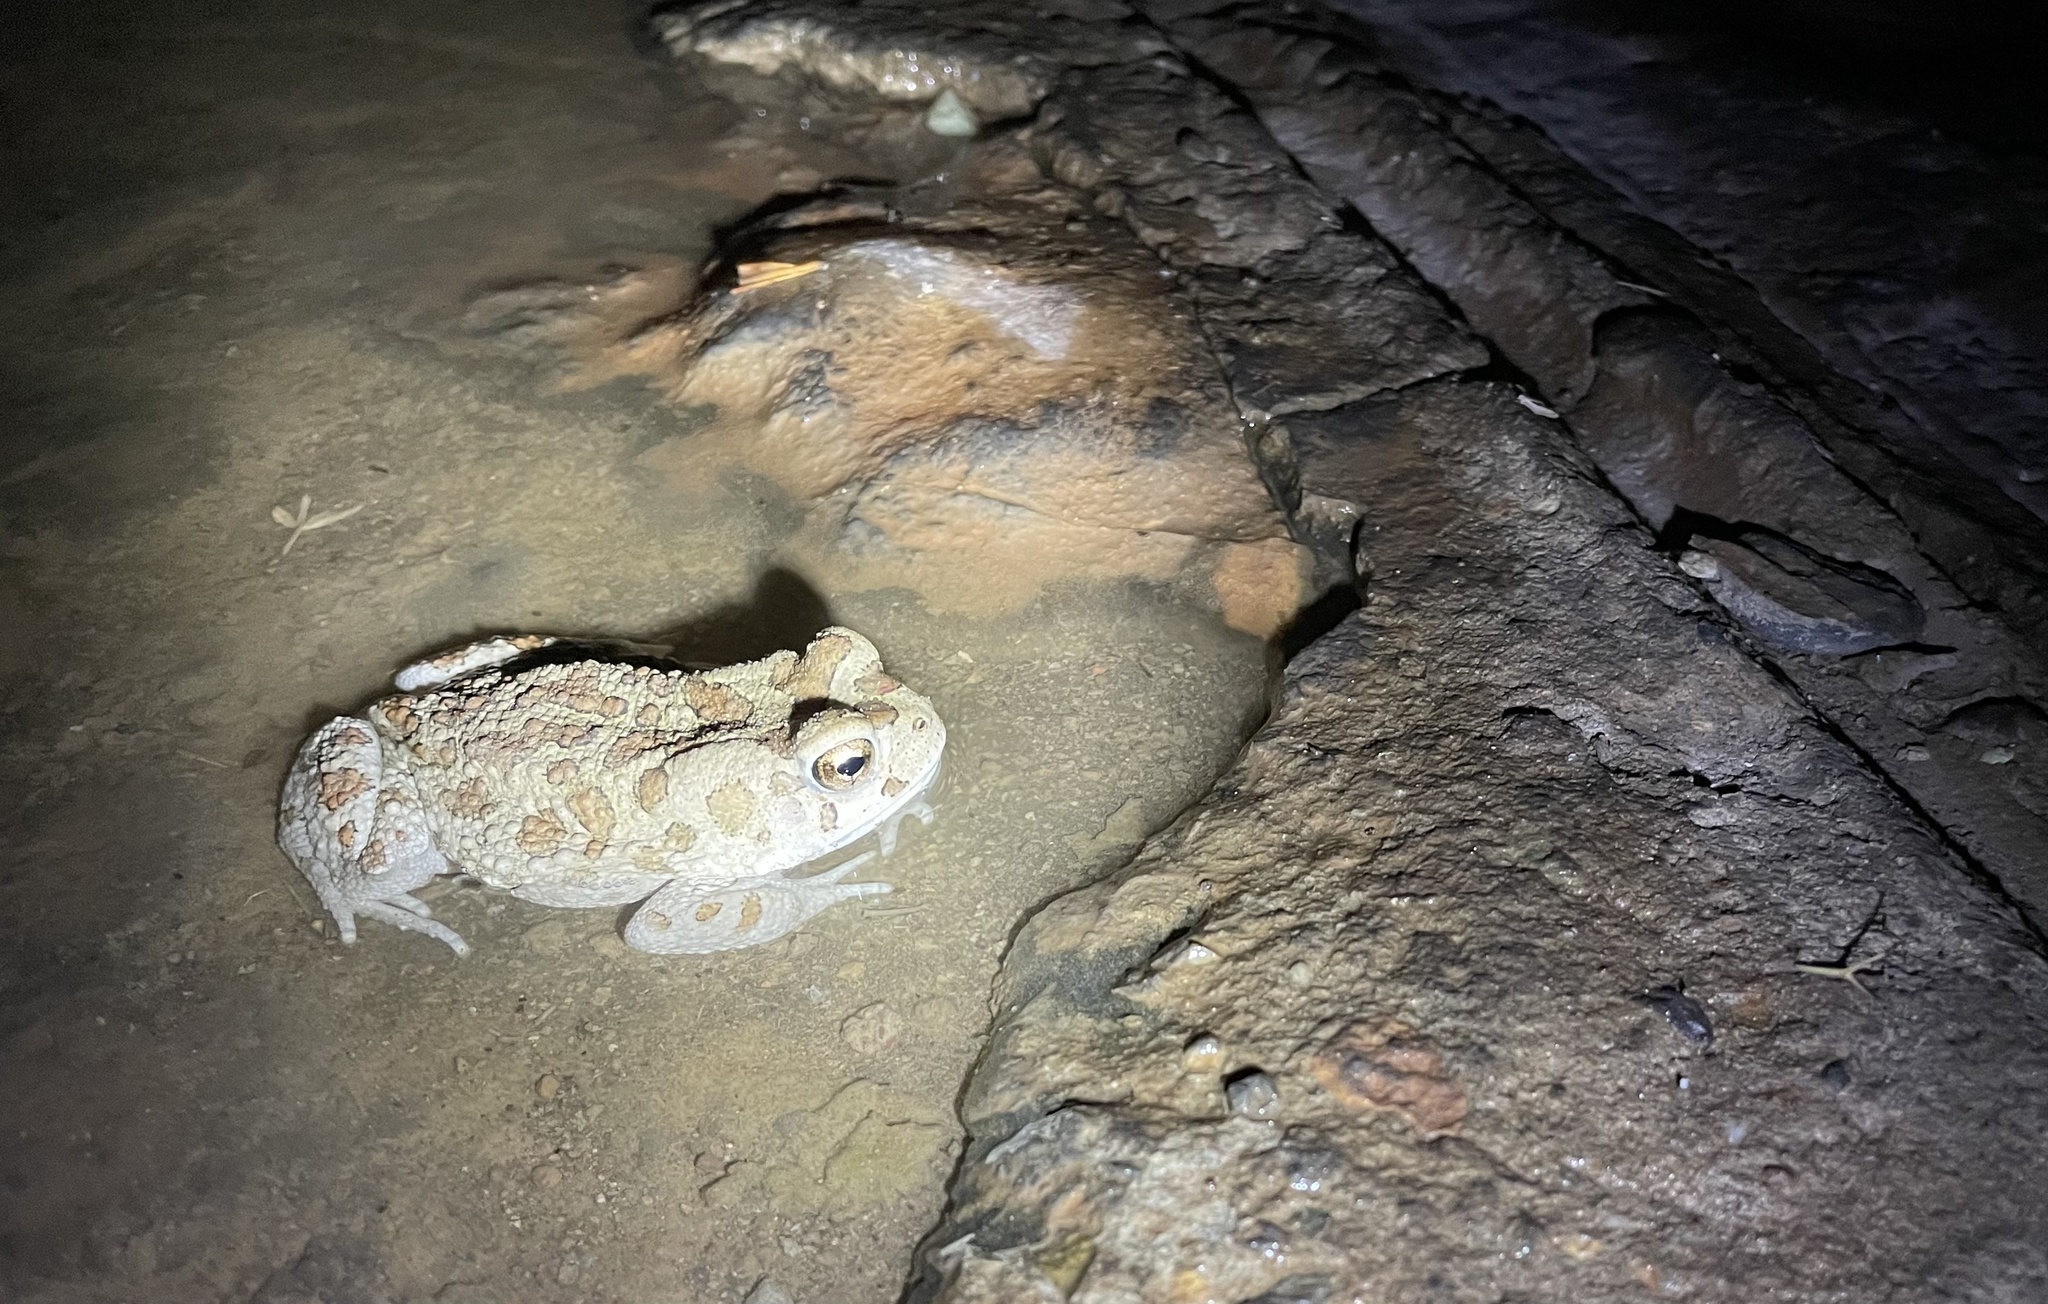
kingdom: Animalia
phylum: Chordata
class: Amphibia
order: Anura
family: Bufonidae
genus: Sclerophrys
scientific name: Sclerophrys mauritanica
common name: Berber toad
